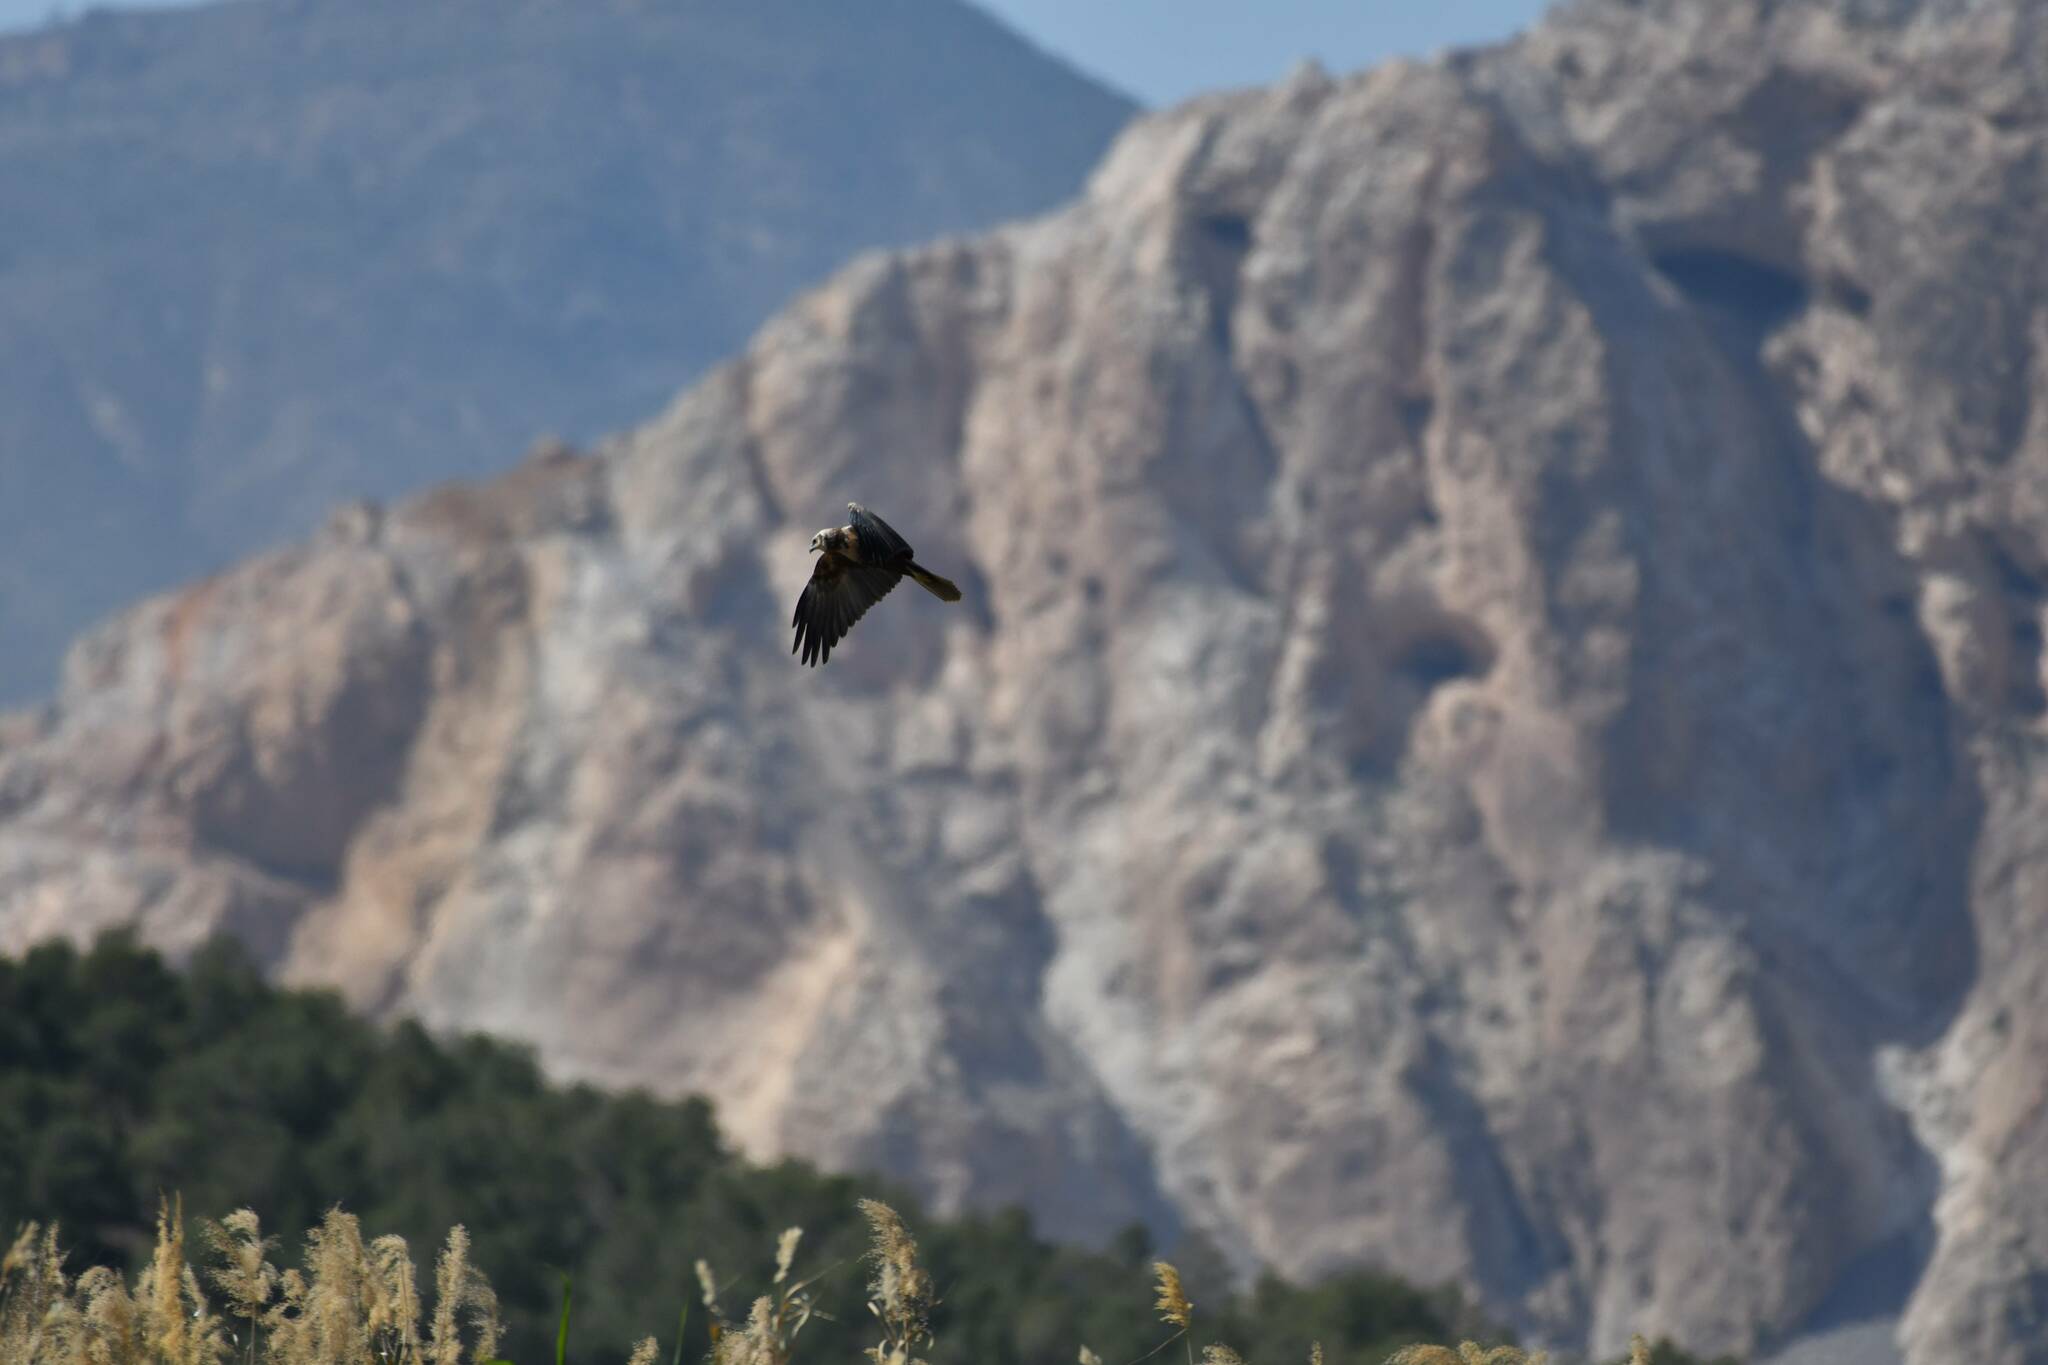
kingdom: Animalia
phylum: Chordata
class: Aves
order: Accipitriformes
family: Accipitridae
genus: Circus
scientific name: Circus aeruginosus
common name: Western marsh harrier
